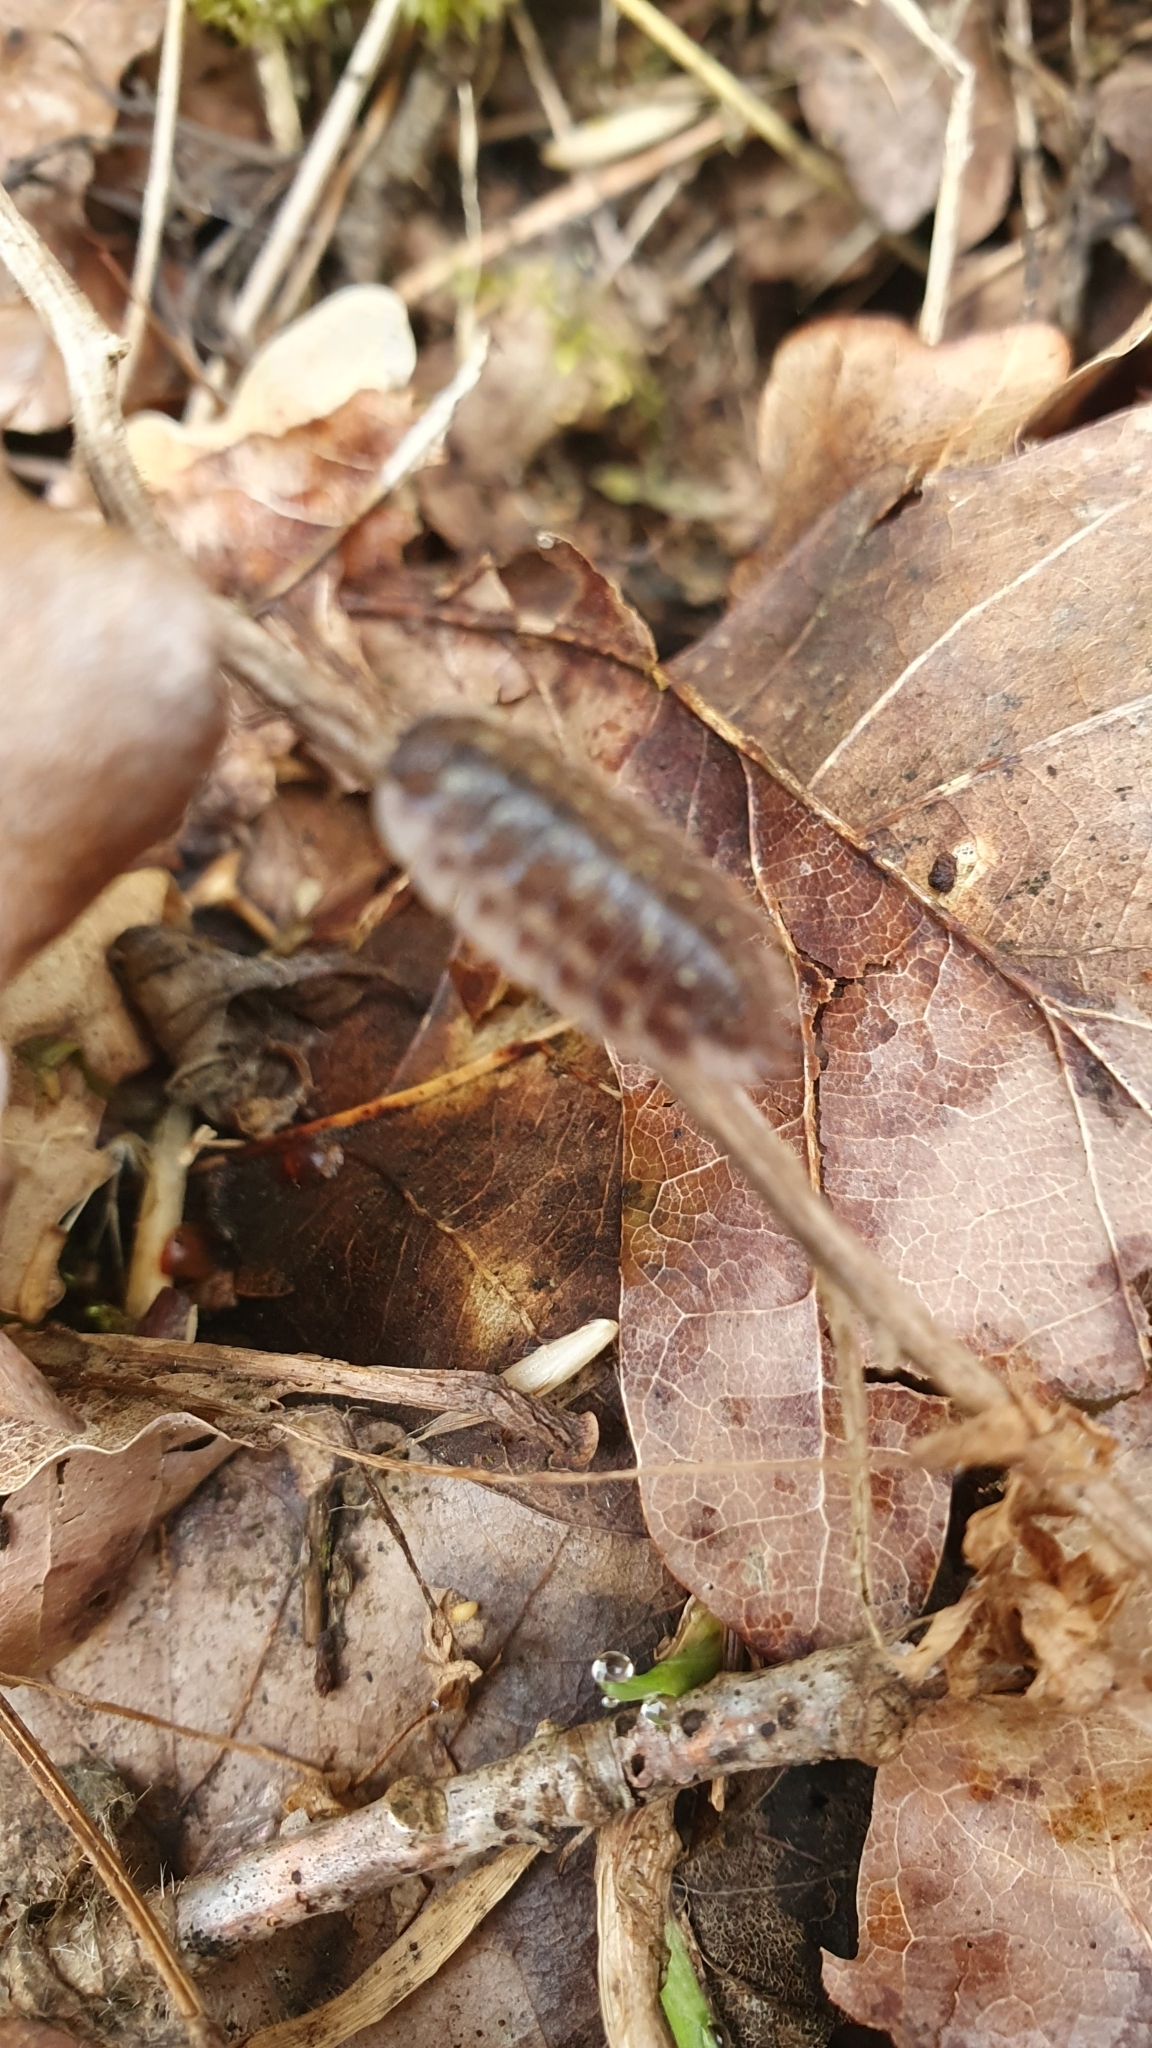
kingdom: Animalia
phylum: Arthropoda
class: Malacostraca
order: Isopoda
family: Oniscidae
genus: Oniscus
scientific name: Oniscus asellus
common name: Common shiny woodlouse
